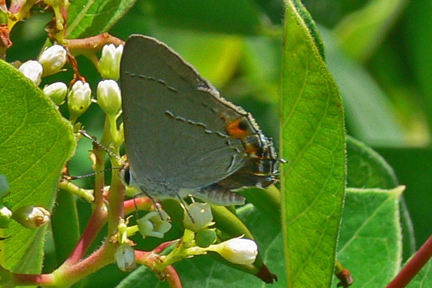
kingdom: Animalia
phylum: Arthropoda
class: Insecta
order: Lepidoptera
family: Lycaenidae
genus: Strymon
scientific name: Strymon melinus
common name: Gray hairstreak
